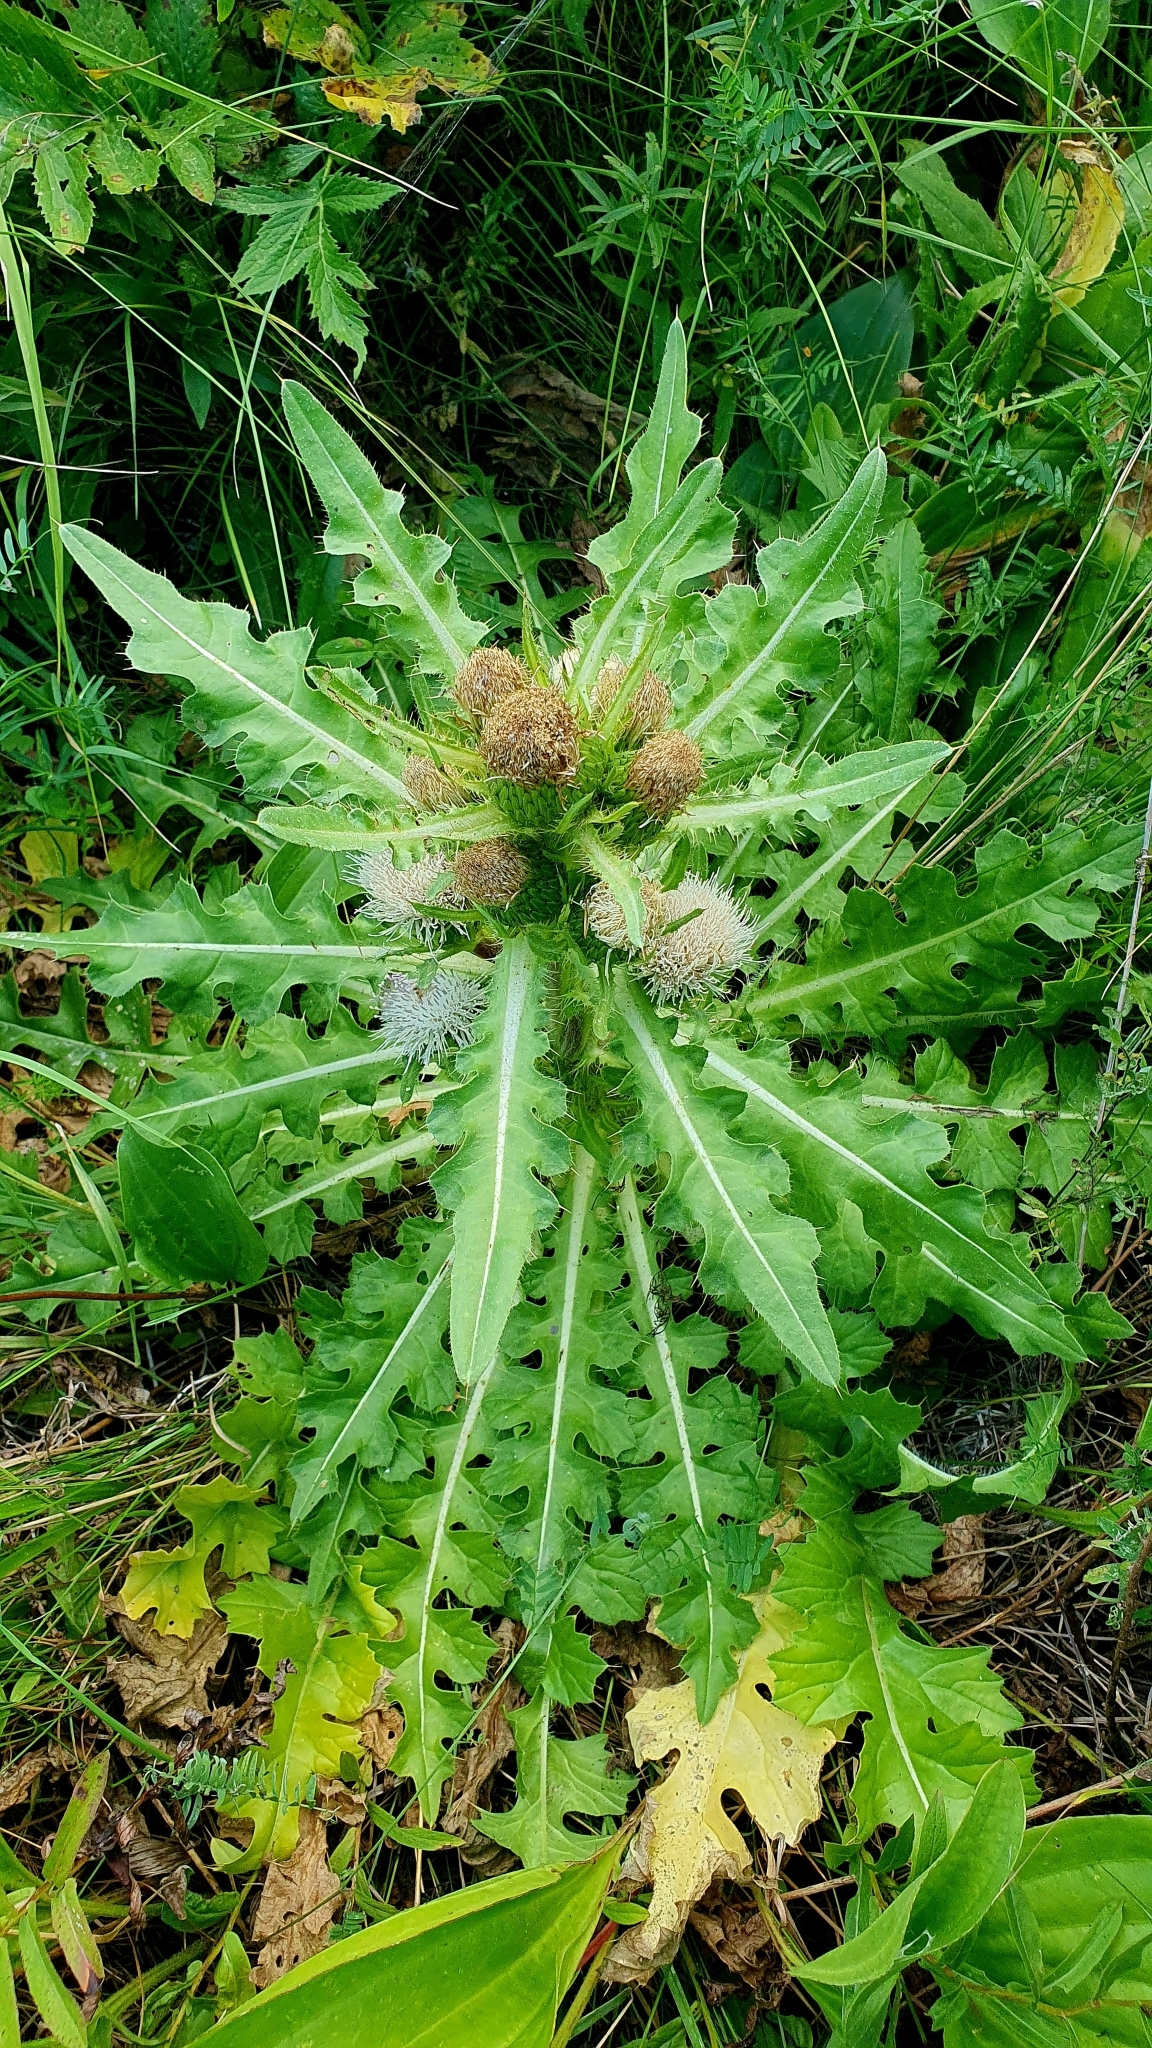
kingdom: Plantae
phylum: Tracheophyta
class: Magnoliopsida
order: Asterales
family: Asteraceae
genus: Cirsium
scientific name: Cirsium esculentum
